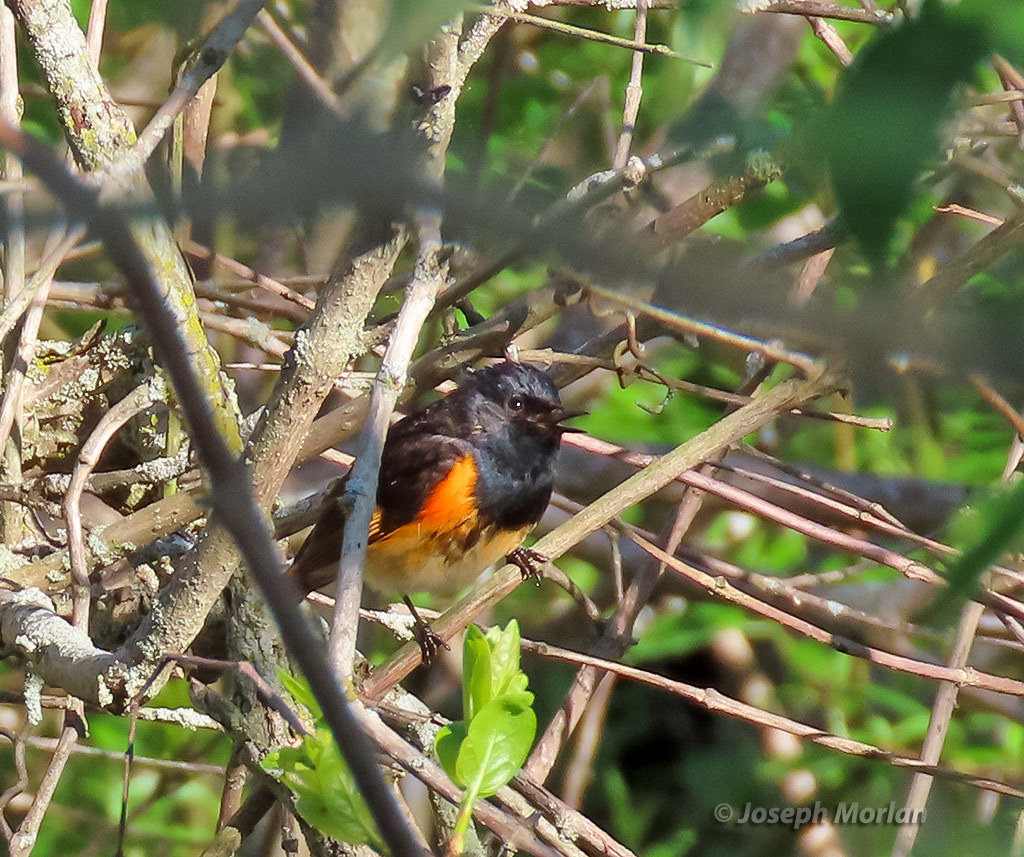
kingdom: Animalia
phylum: Chordata
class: Aves
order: Passeriformes
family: Parulidae
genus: Setophaga
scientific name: Setophaga ruticilla
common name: American redstart
